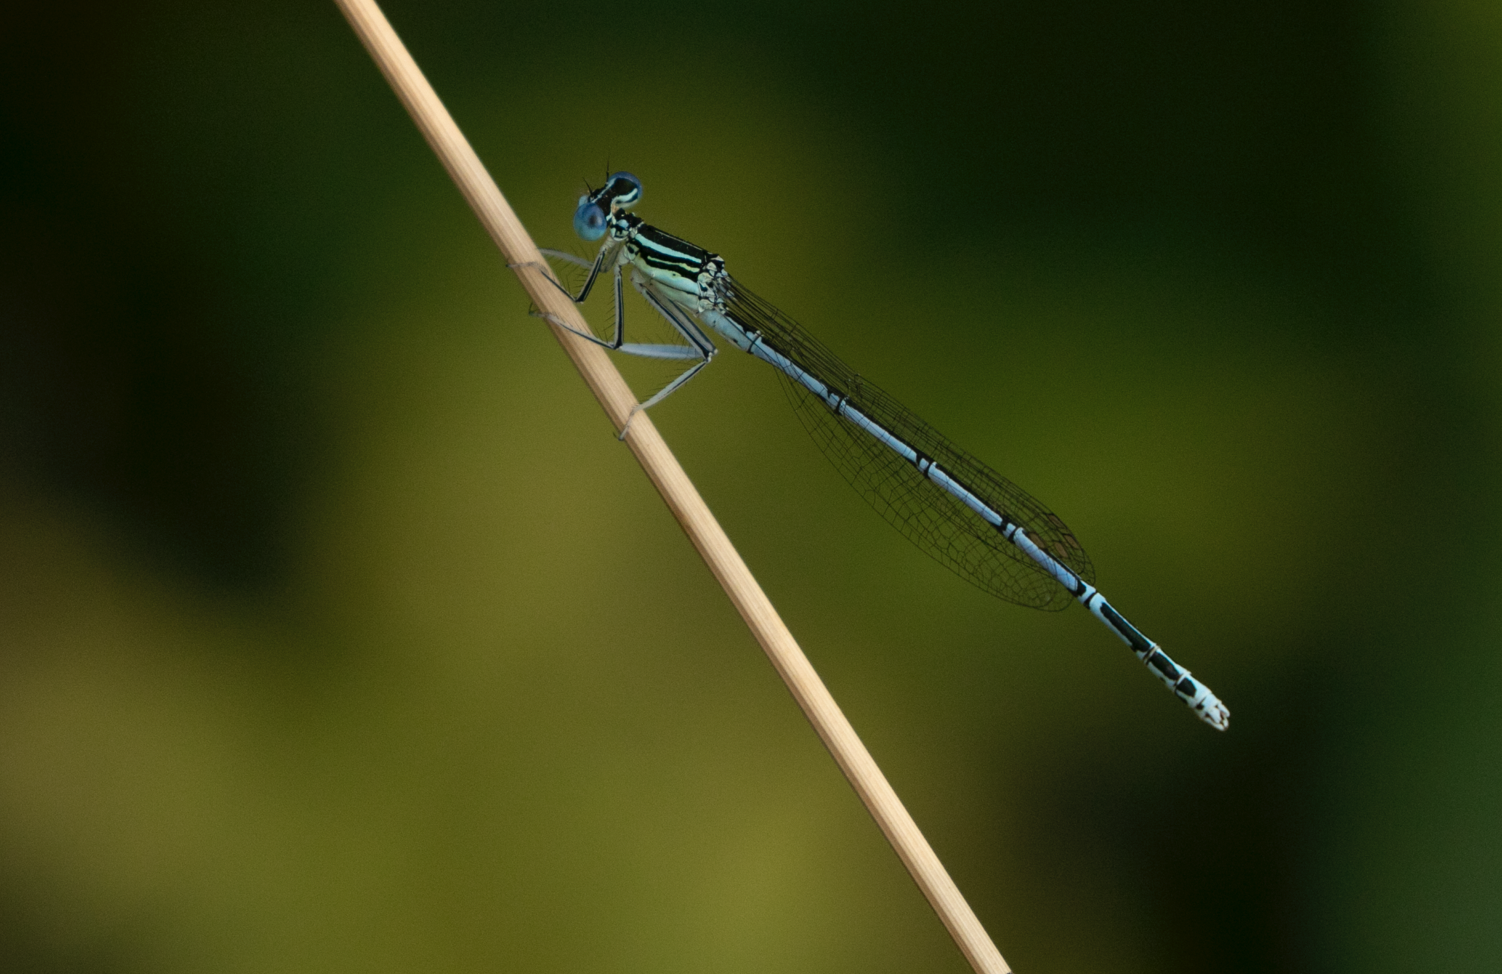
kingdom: Animalia
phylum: Arthropoda
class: Insecta
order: Odonata
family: Platycnemididae
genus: Platycnemis
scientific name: Platycnemis pennipes
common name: White-legged damselfly
